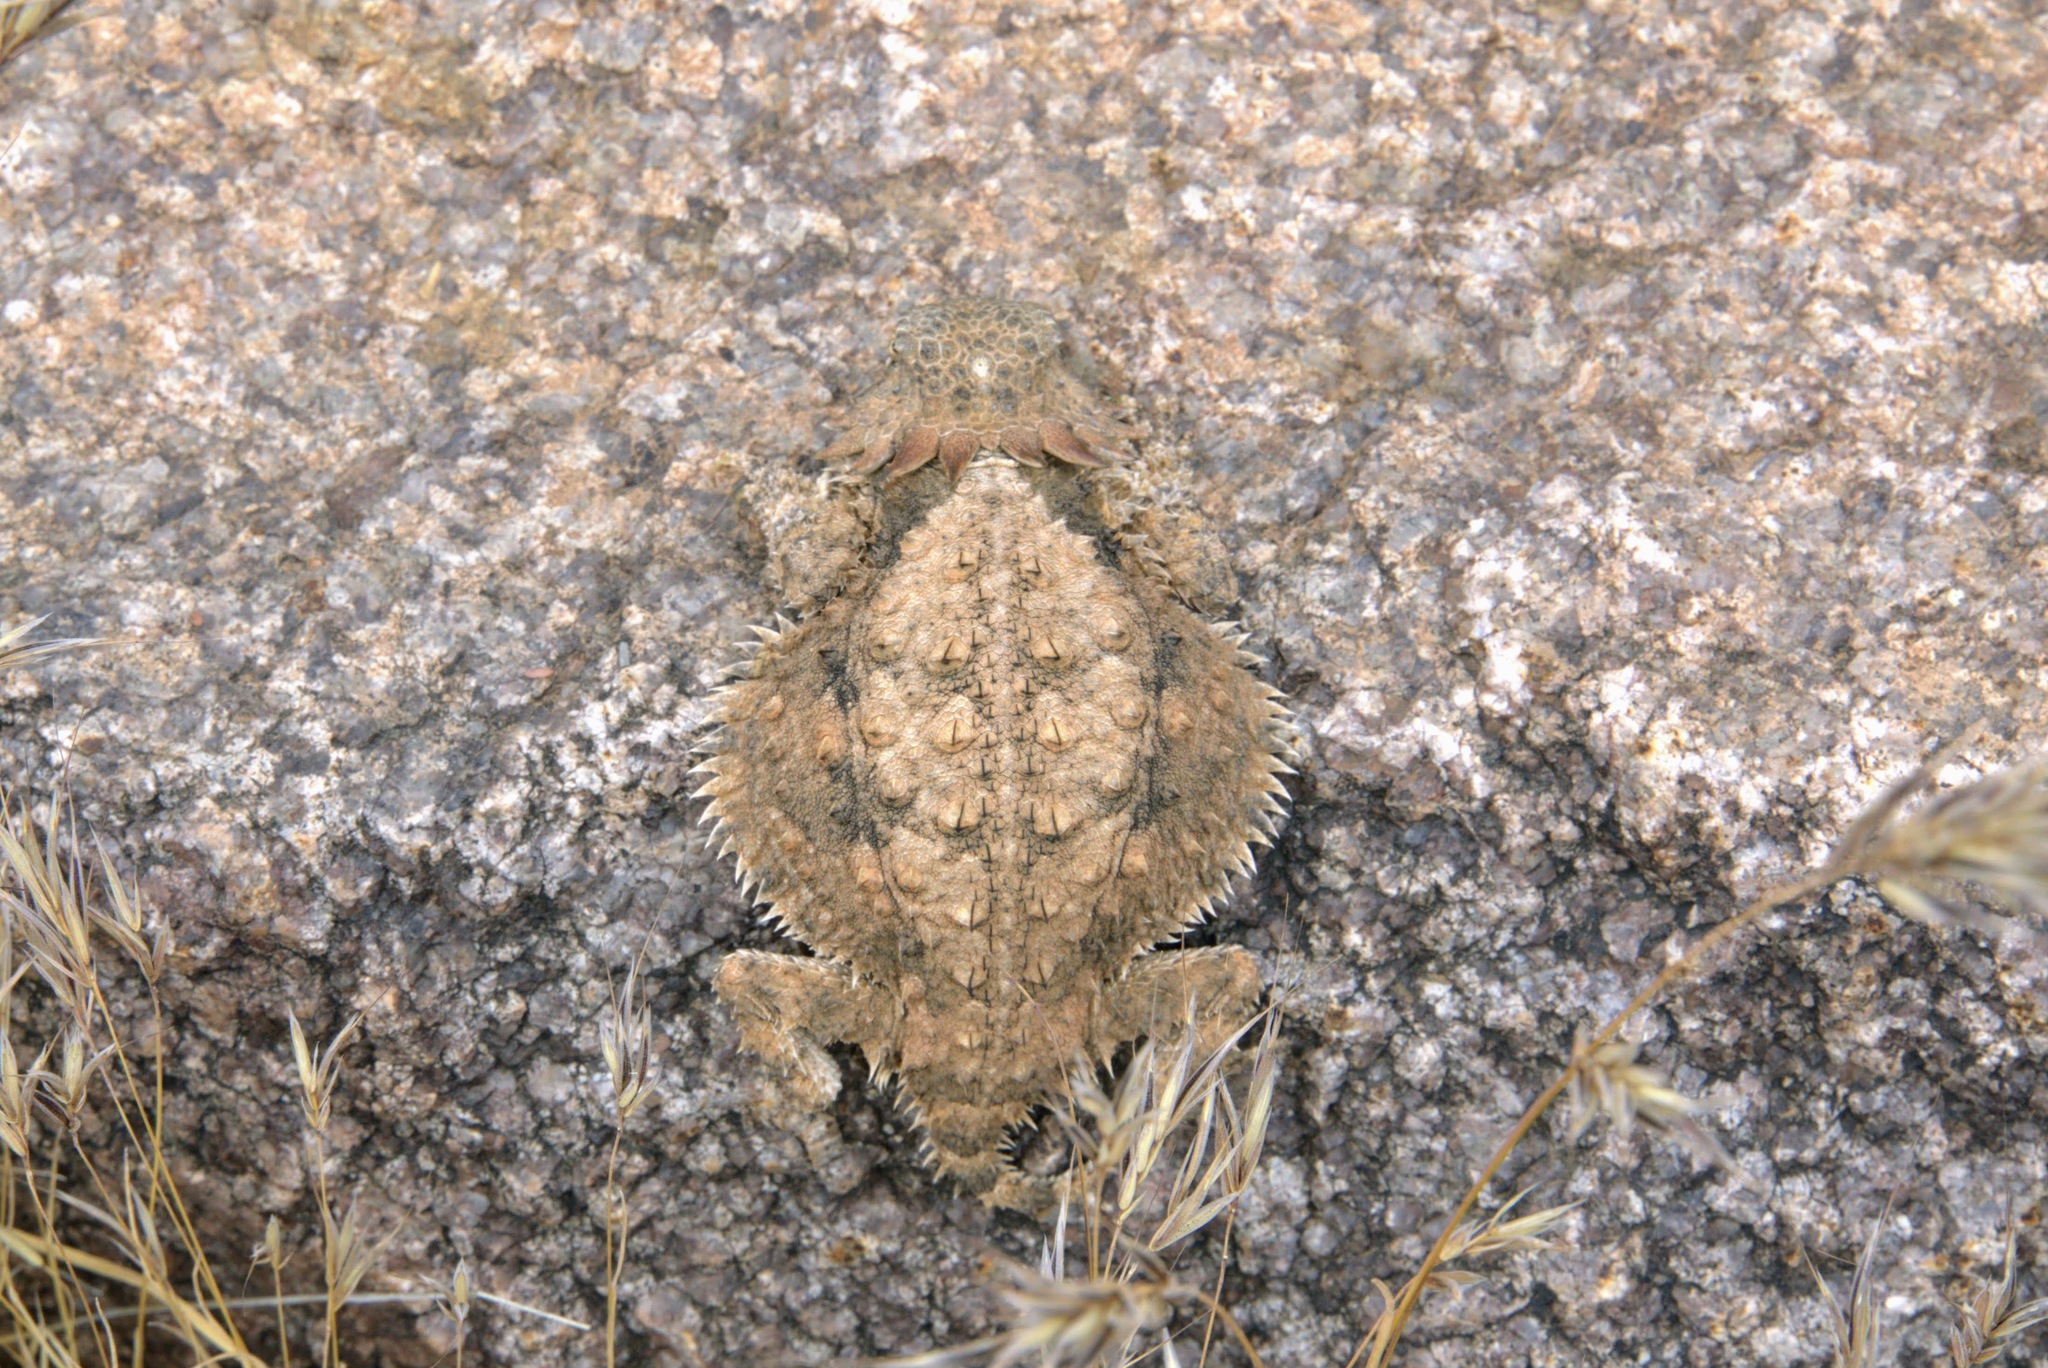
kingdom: Animalia
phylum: Chordata
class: Squamata
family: Phrynosomatidae
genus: Phrynosoma
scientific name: Phrynosoma solare
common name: Regal horned lizard
